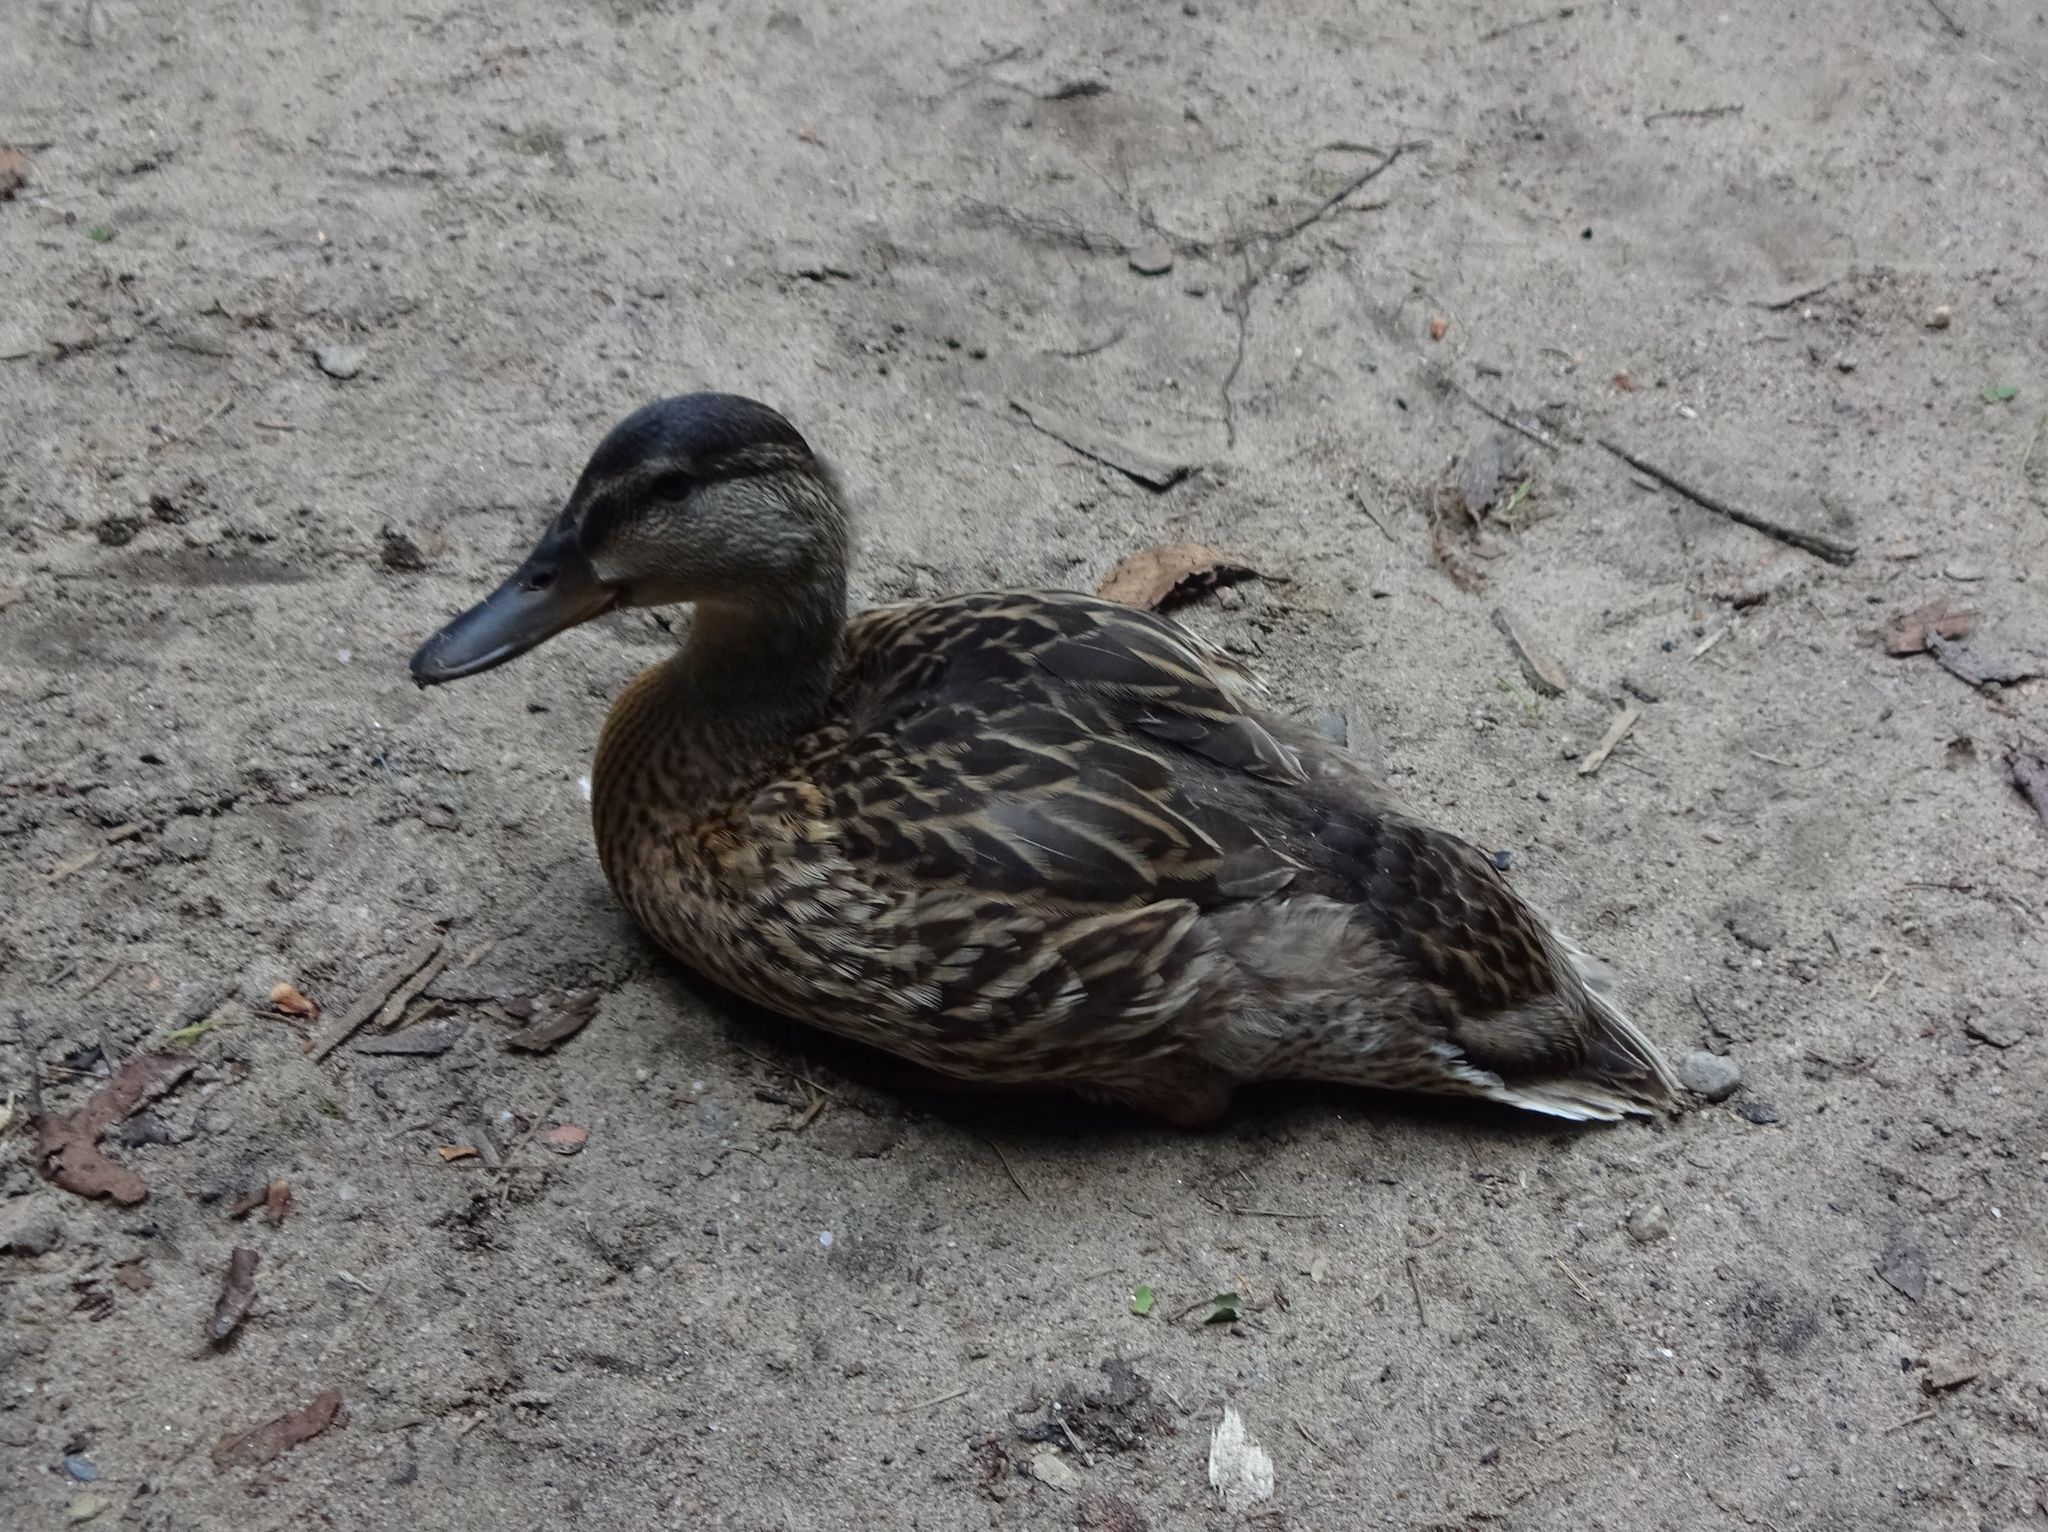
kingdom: Animalia
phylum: Chordata
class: Aves
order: Anseriformes
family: Anatidae
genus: Anas
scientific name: Anas platyrhynchos
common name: Mallard
